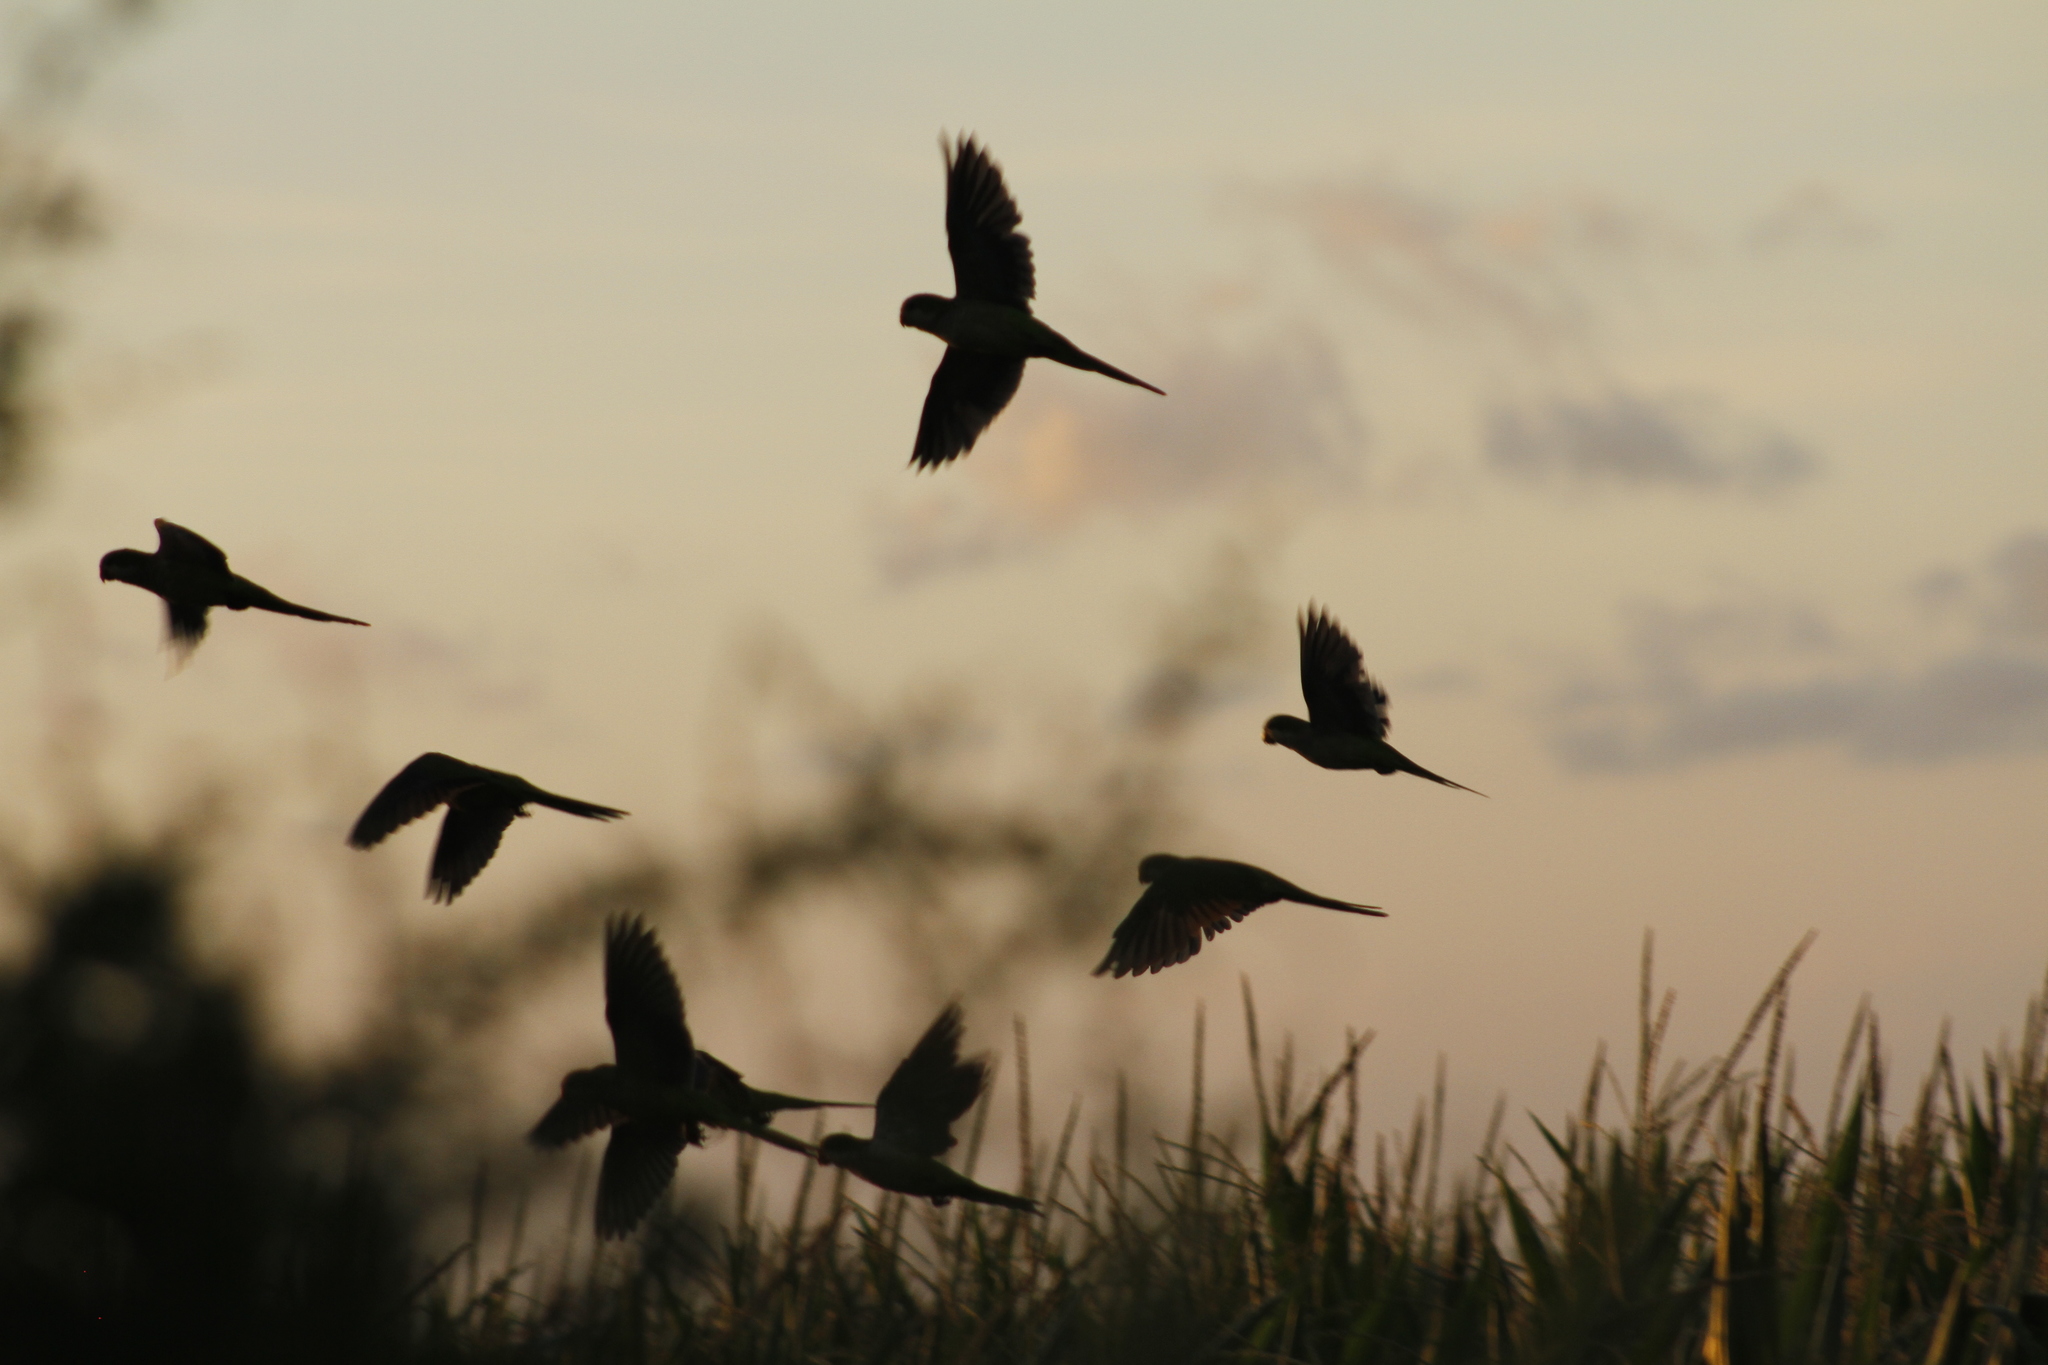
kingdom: Animalia
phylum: Chordata
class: Aves
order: Psittaciformes
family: Psittacidae
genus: Myiopsitta
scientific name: Myiopsitta monachus
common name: Monk parakeet
